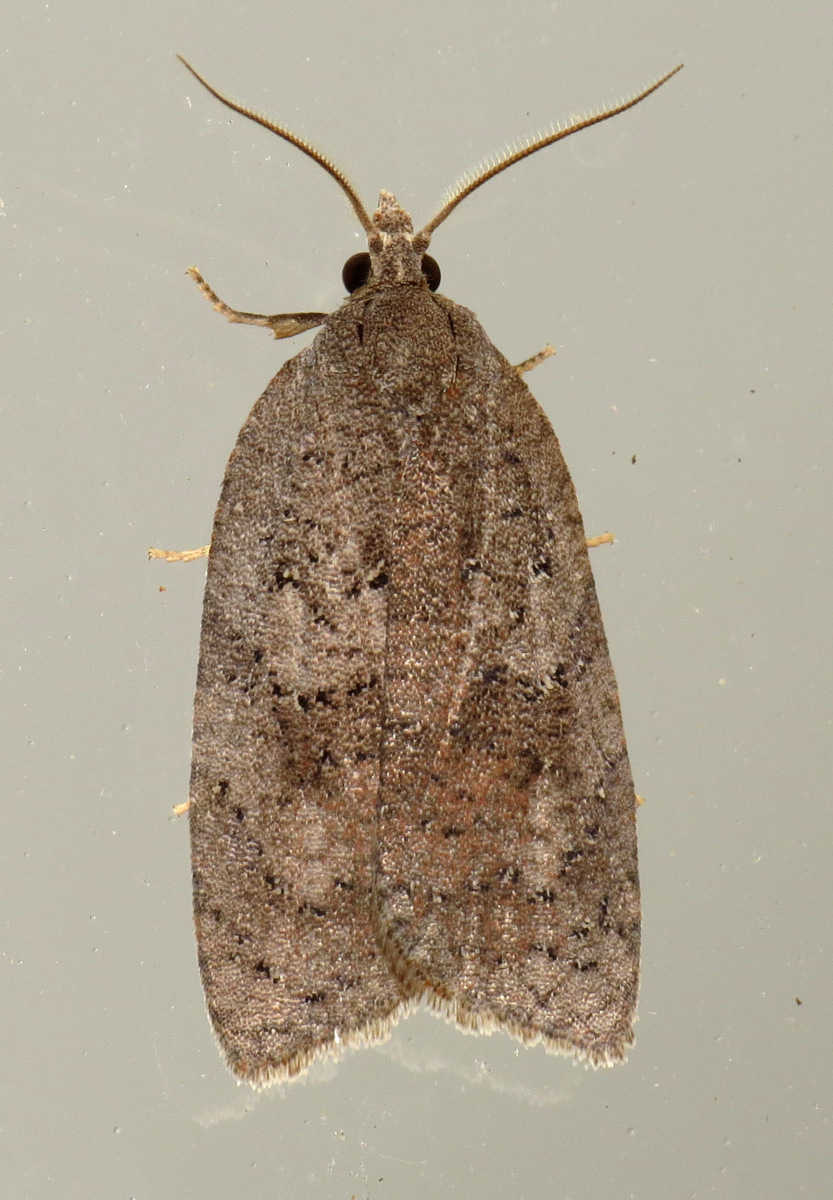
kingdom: Animalia
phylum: Arthropoda
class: Insecta
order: Lepidoptera
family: Tortricidae
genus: Amorbia
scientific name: Amorbia humerosana
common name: White-lined leafroller moth
